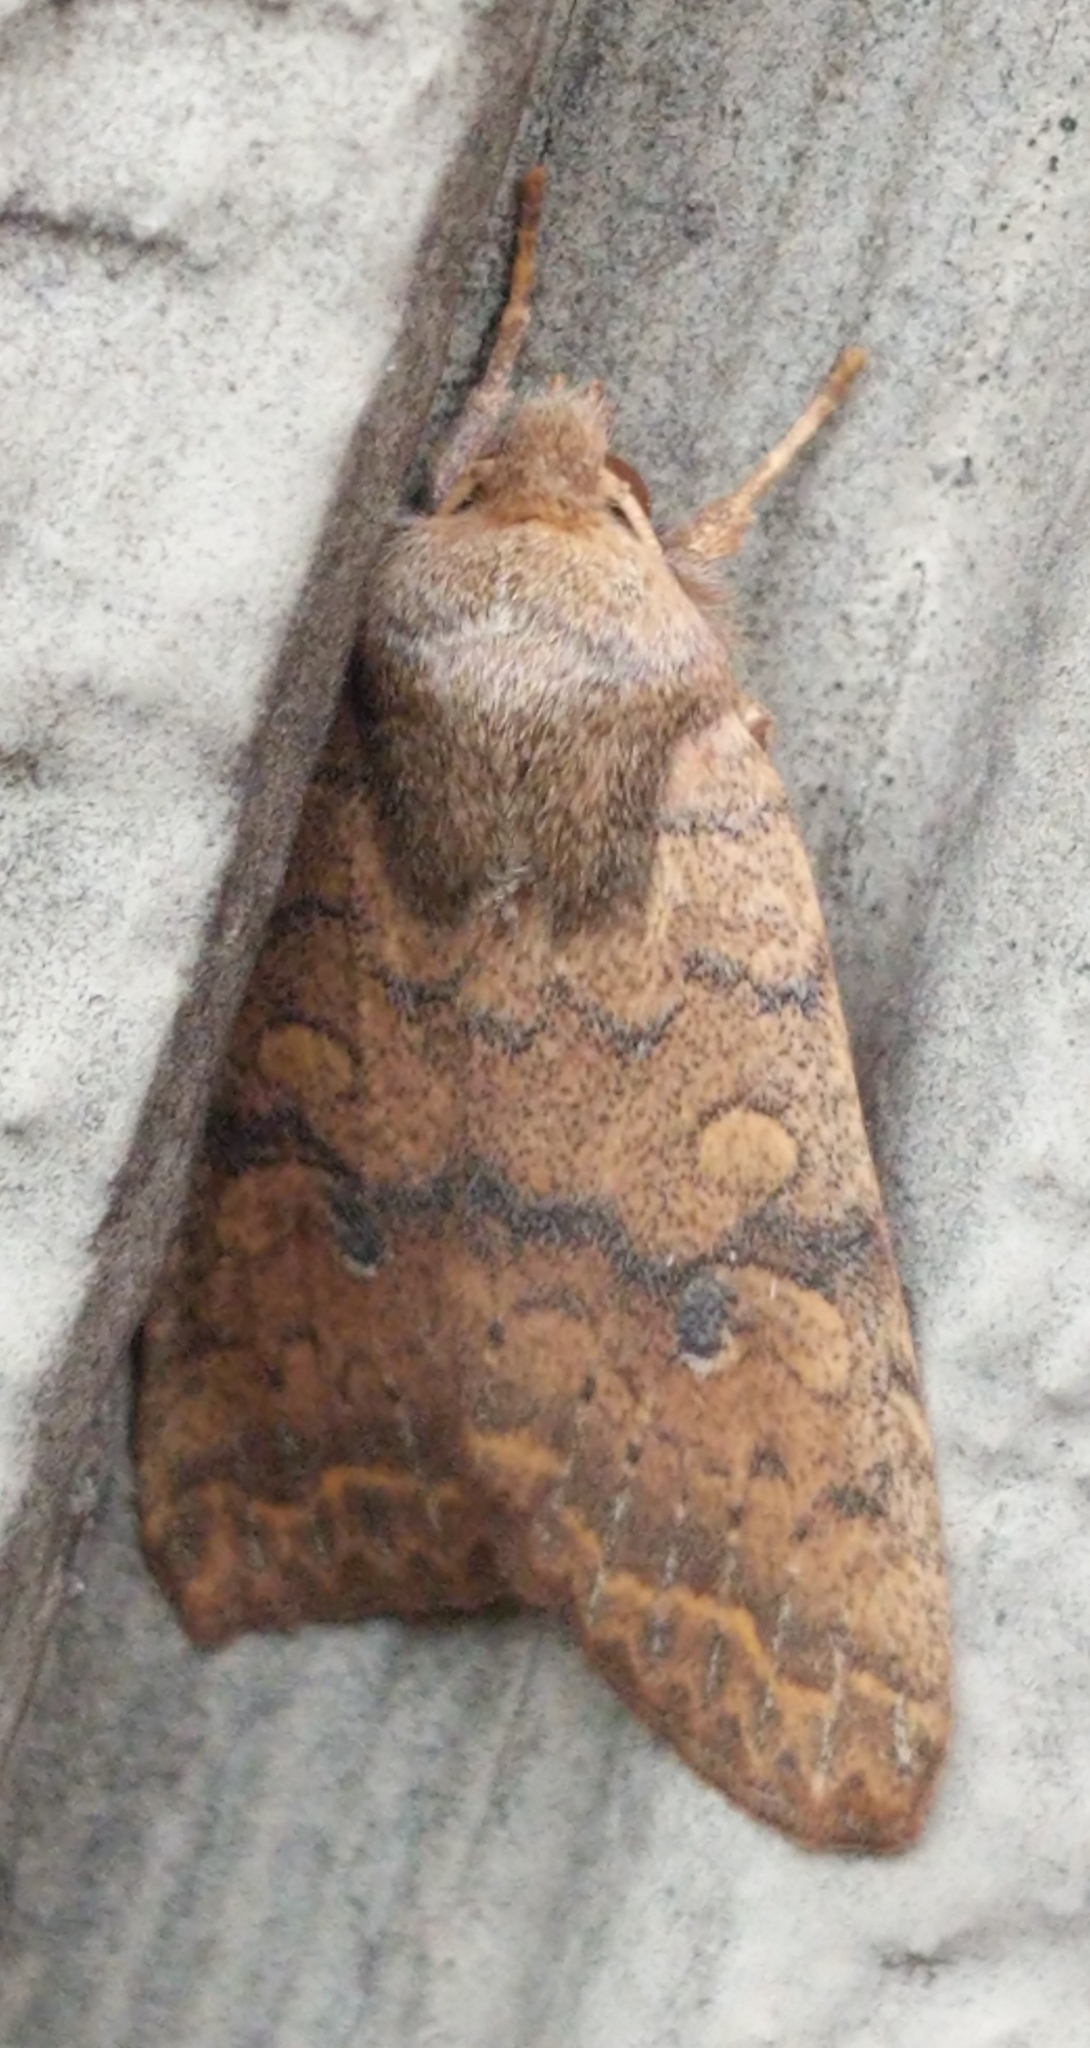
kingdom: Animalia
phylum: Arthropoda
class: Insecta
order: Lepidoptera
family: Noctuidae
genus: Agrochola
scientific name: Agrochola bicolorago
